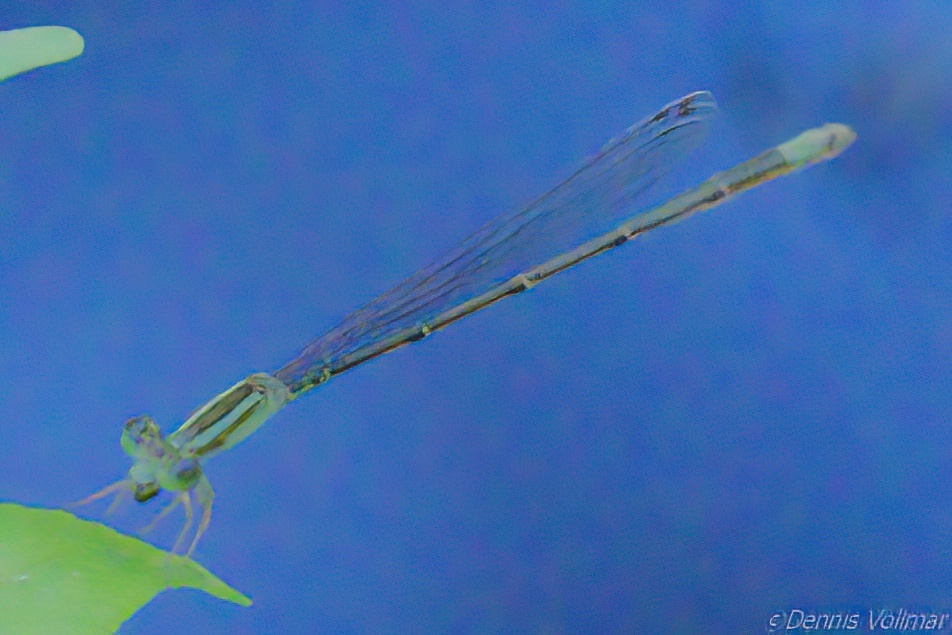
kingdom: Animalia
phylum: Arthropoda
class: Insecta
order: Odonata
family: Coenagrionidae
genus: Leptobasis
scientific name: Leptobasis lucifer
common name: Lucifer swampdamsel
